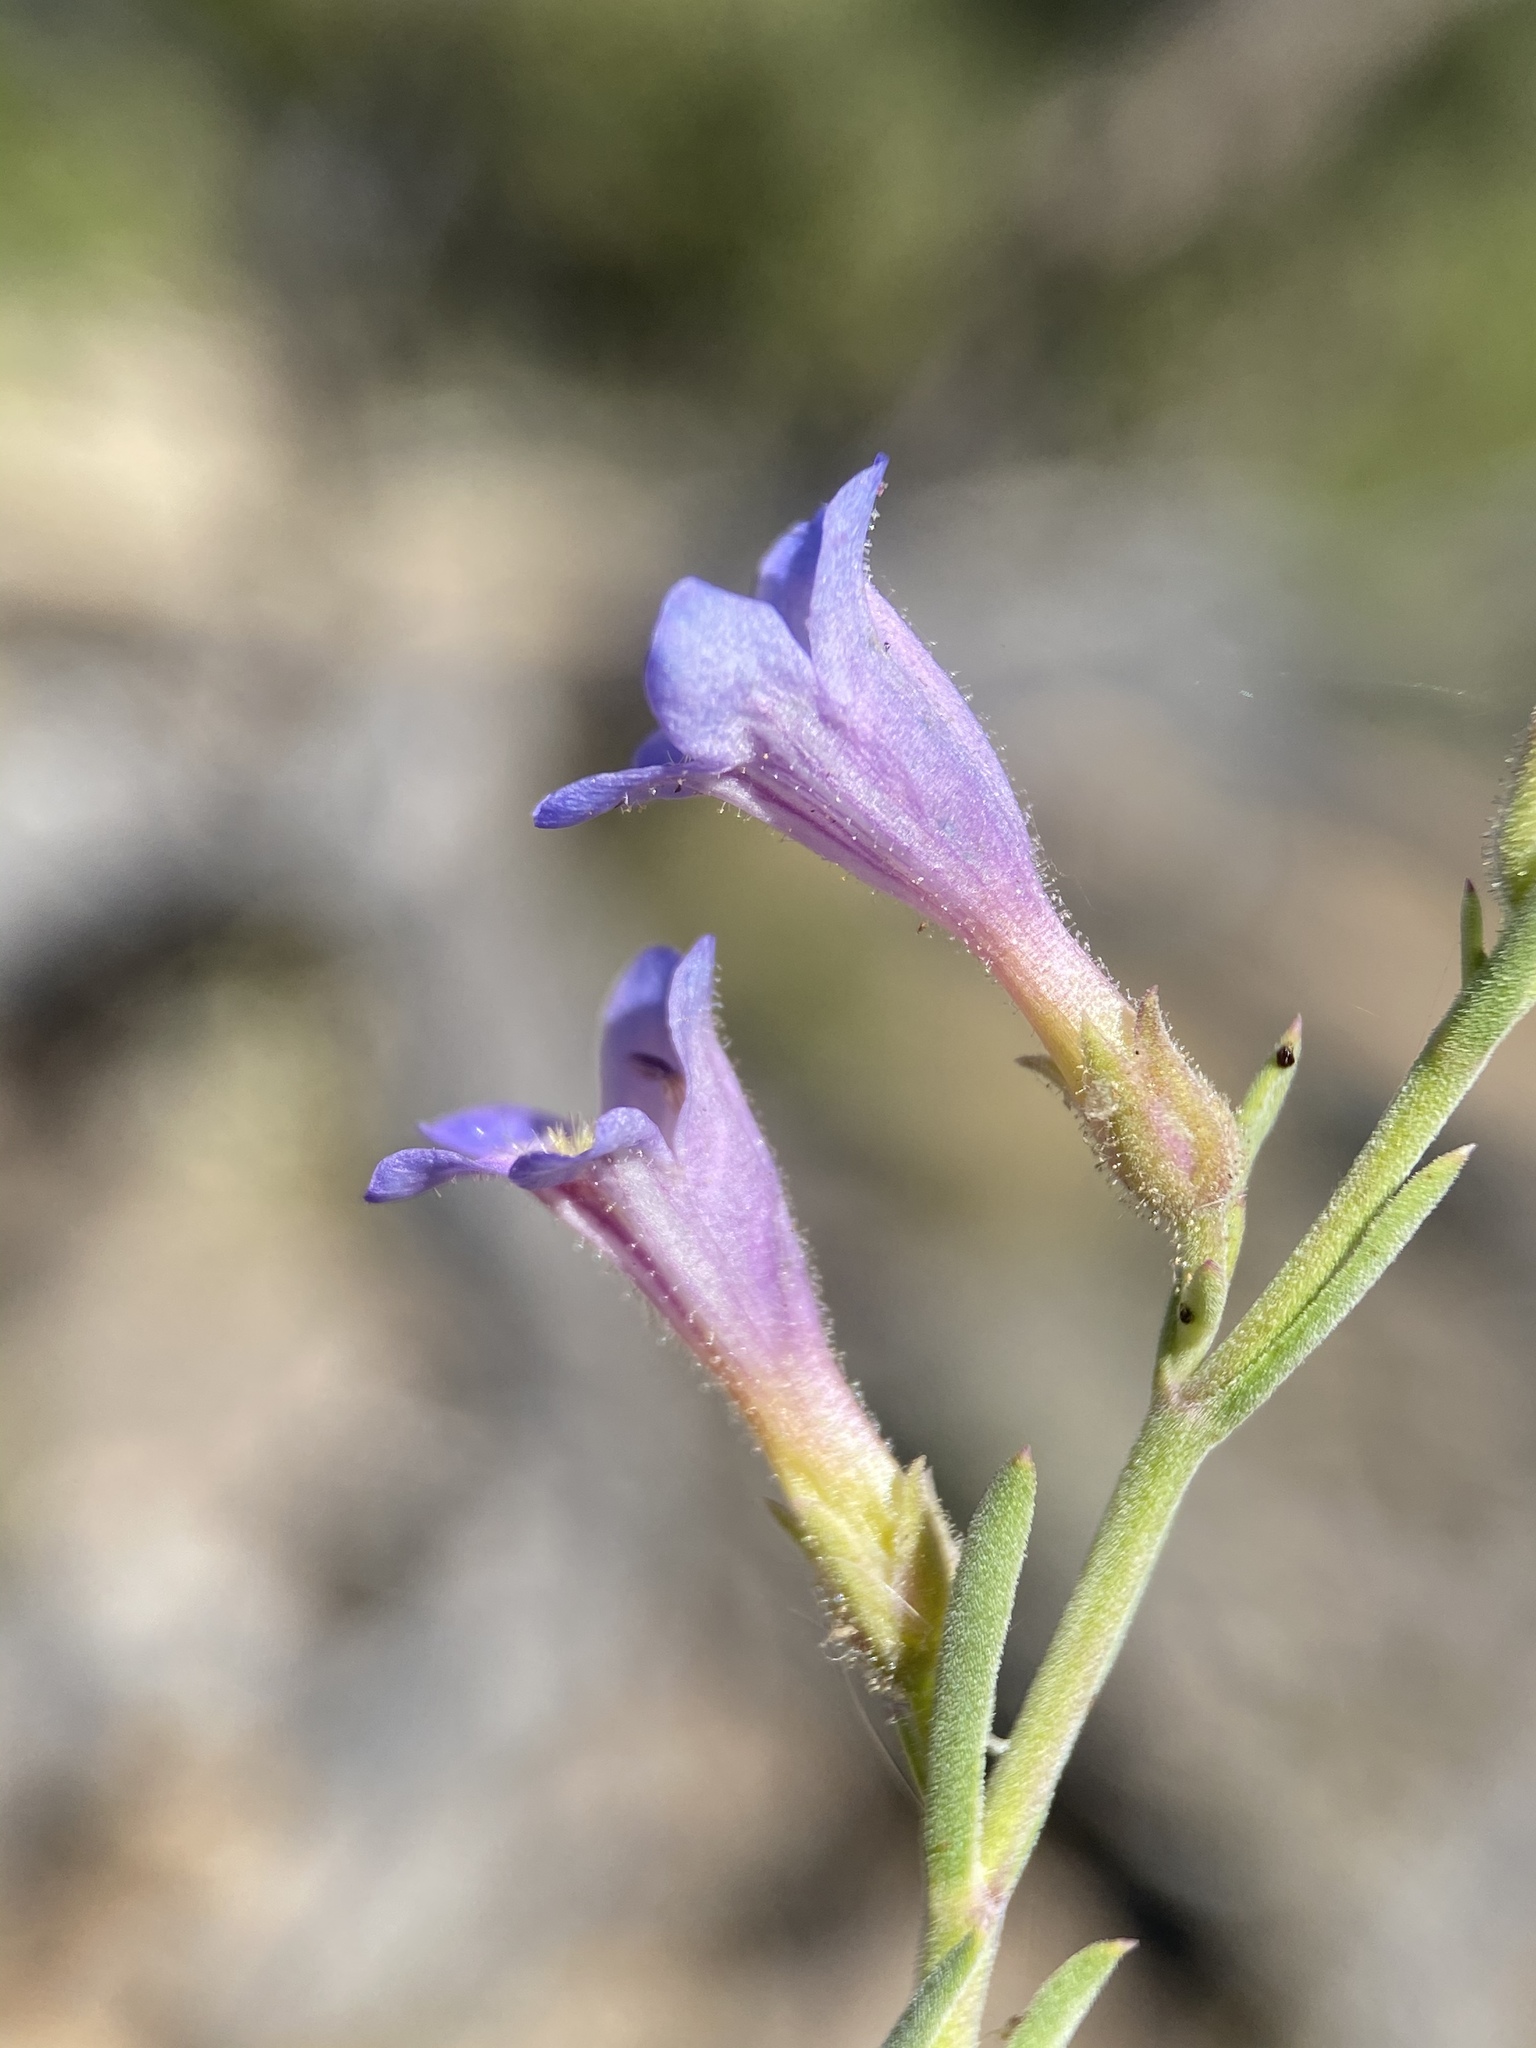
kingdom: Plantae
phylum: Tracheophyta
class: Magnoliopsida
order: Lamiales
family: Plantaginaceae
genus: Penstemon
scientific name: Penstemon linarioides
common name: Siler's penstemon
